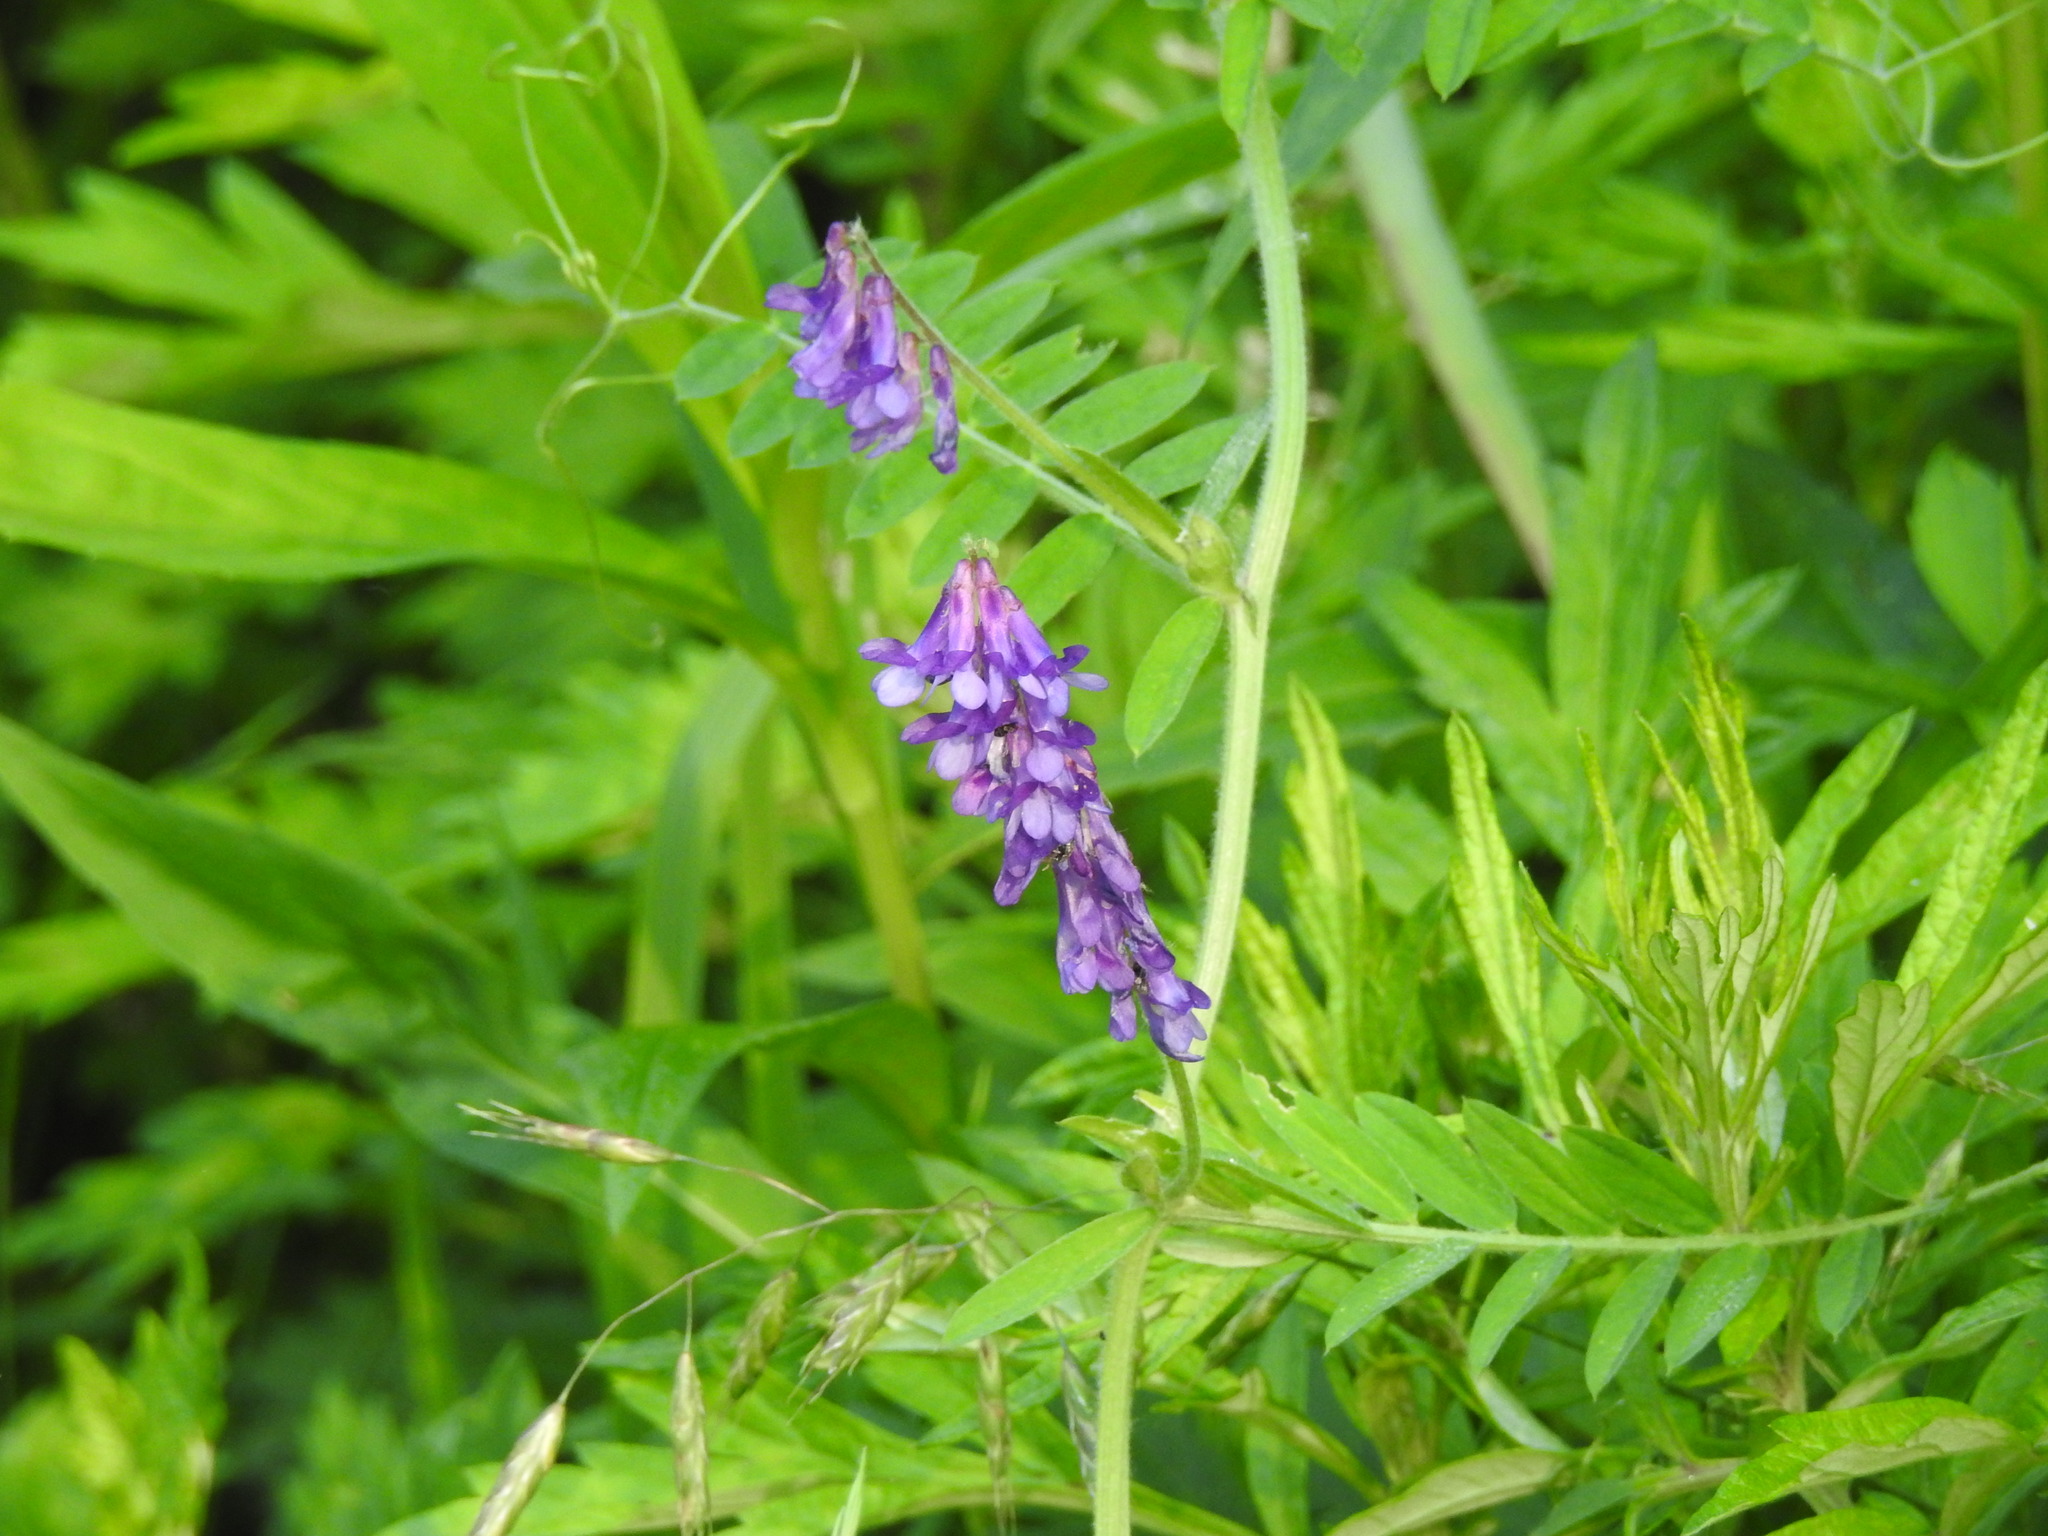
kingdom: Plantae
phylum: Tracheophyta
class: Magnoliopsida
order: Fabales
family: Fabaceae
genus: Vicia
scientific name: Vicia villosa
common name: Fodder vetch
